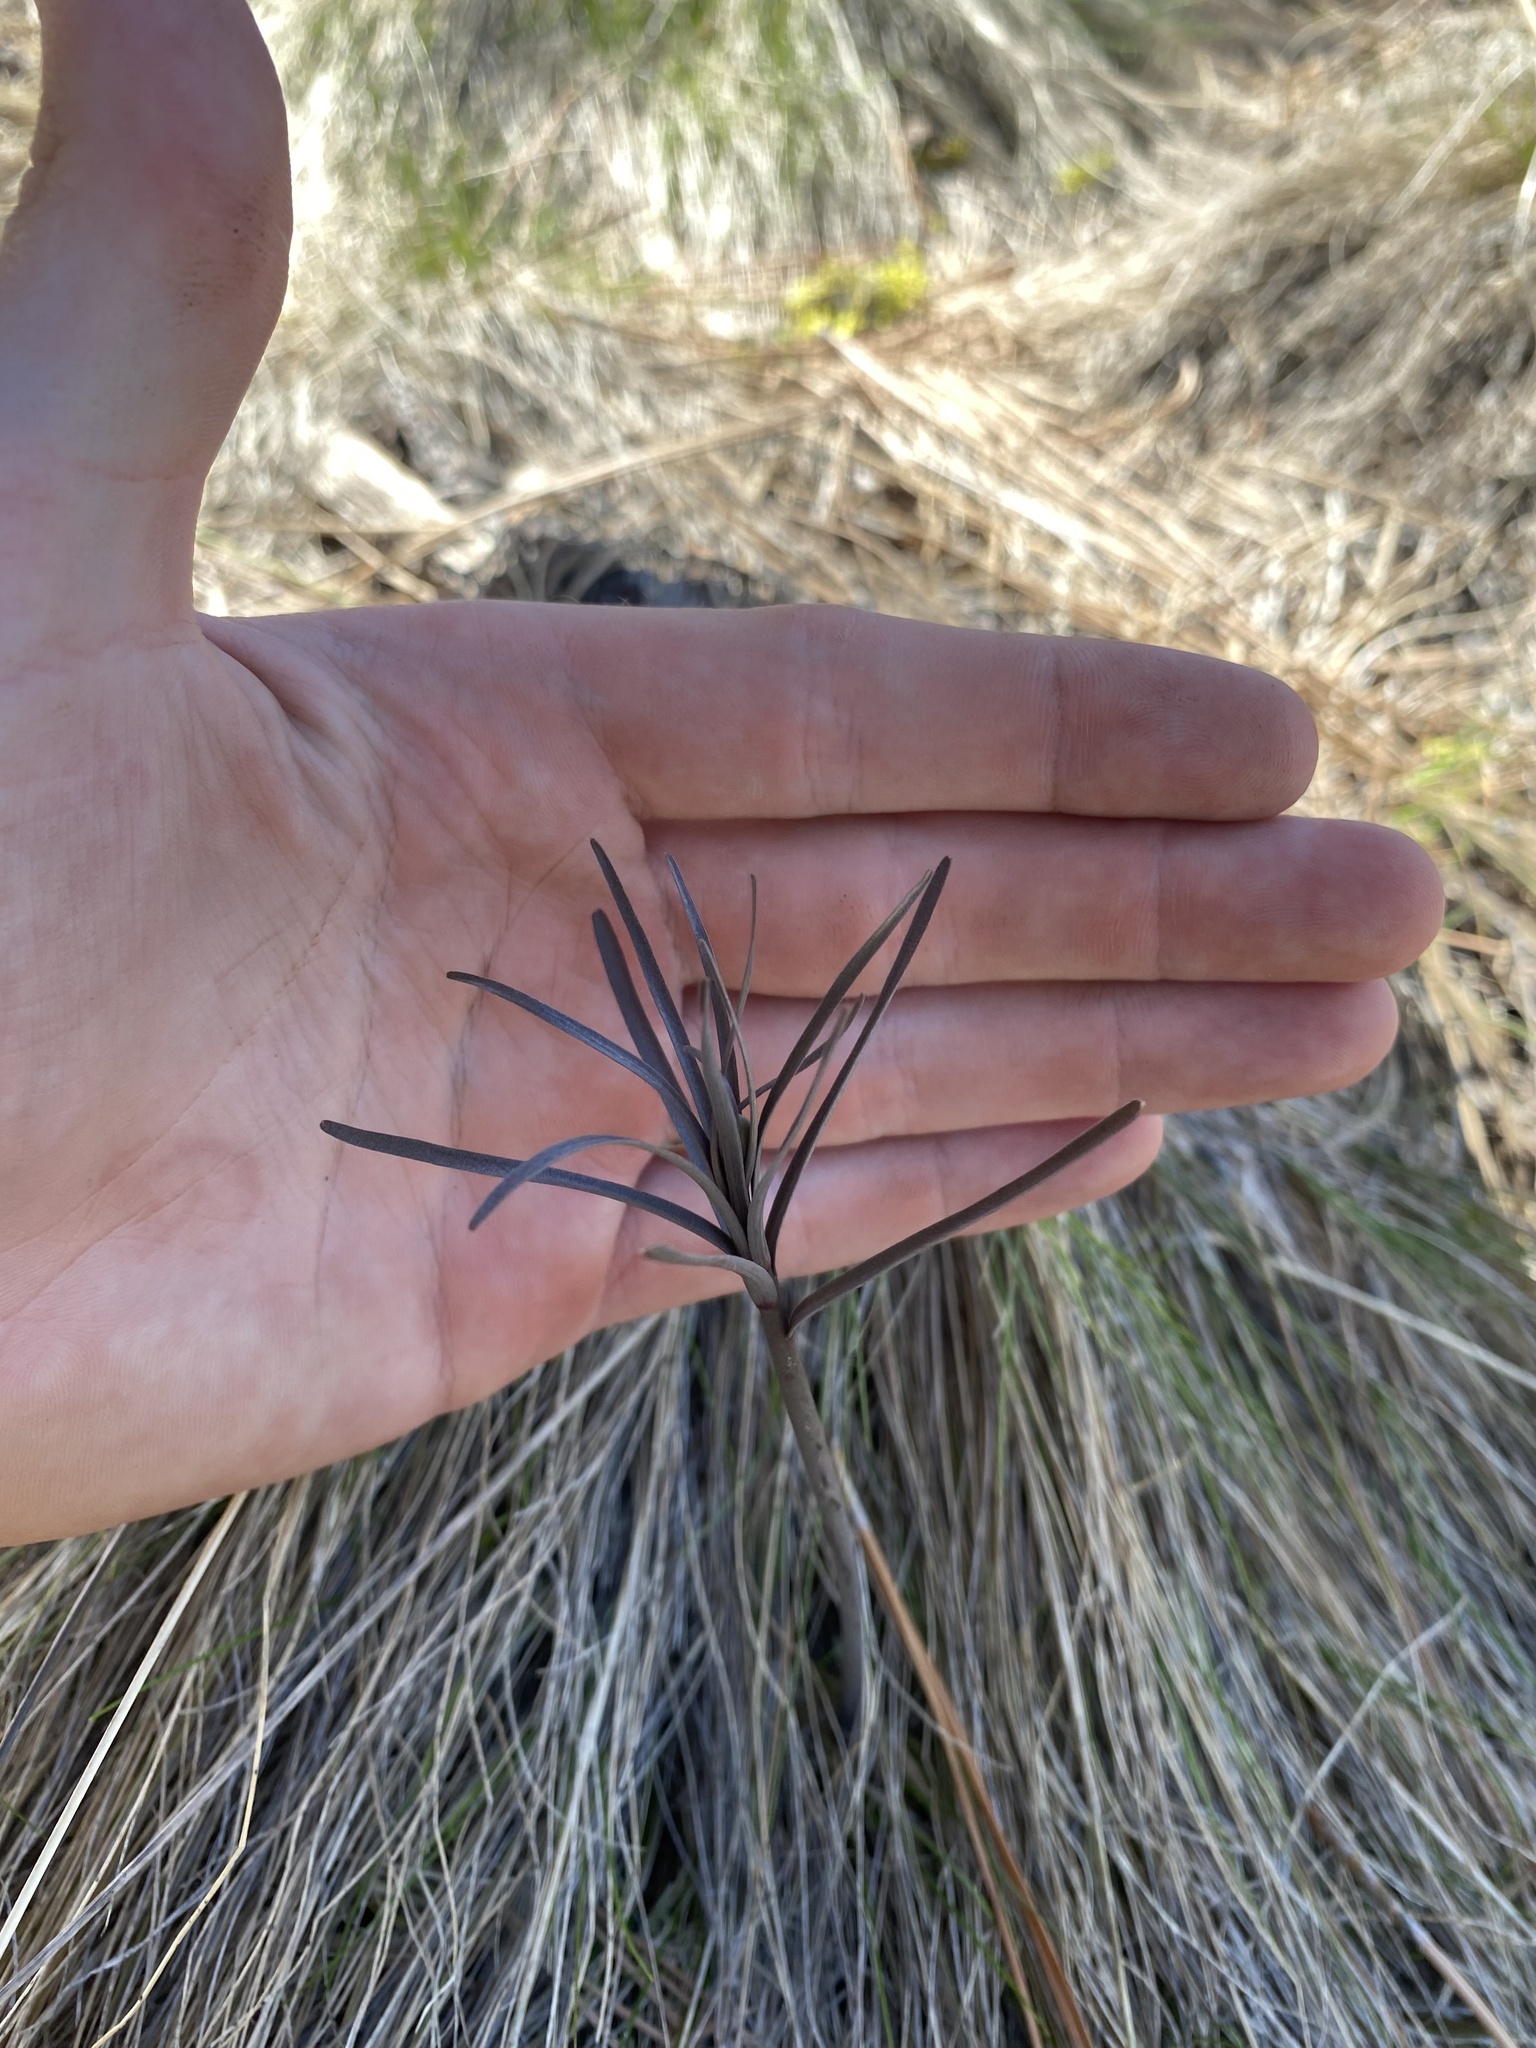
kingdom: Plantae
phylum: Tracheophyta
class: Liliopsida
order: Liliales
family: Liliaceae
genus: Fritillaria
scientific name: Fritillaria atropurpurea
